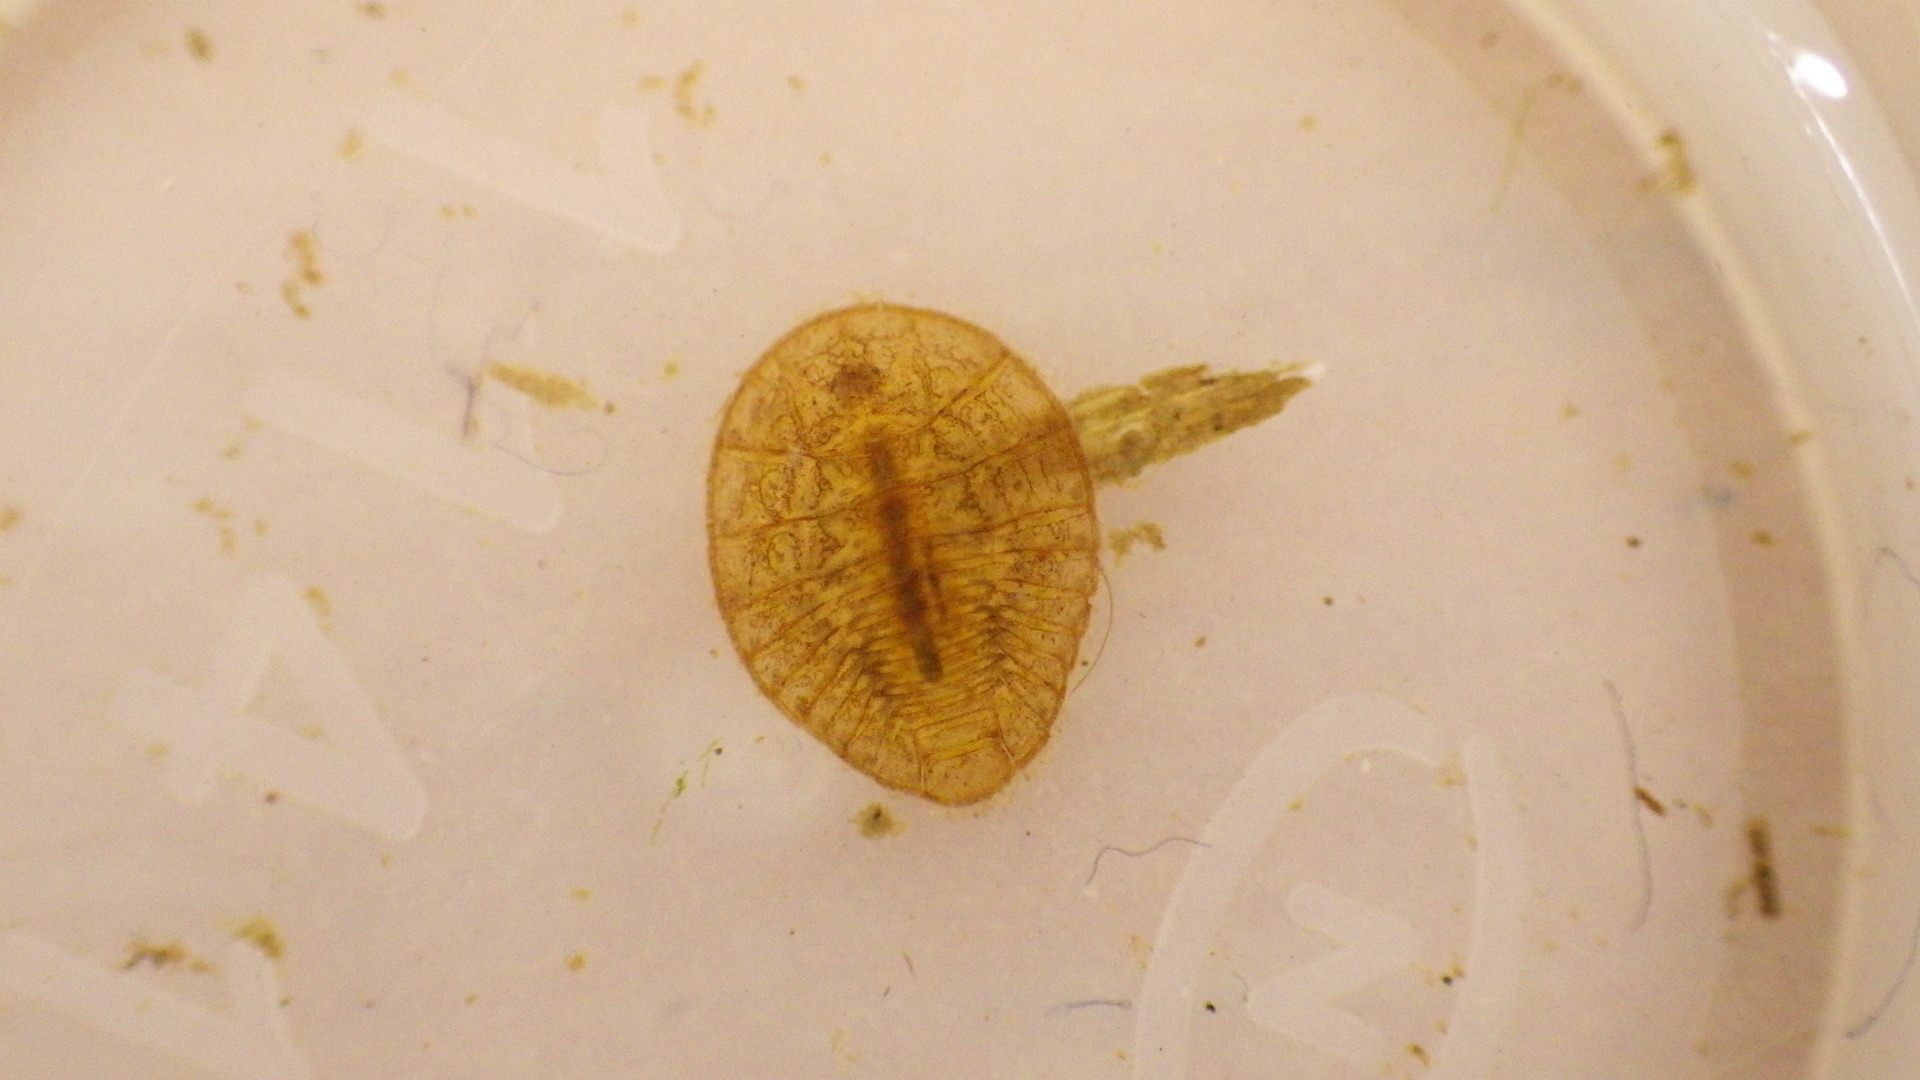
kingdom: Animalia
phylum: Arthropoda
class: Insecta
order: Coleoptera
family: Psephenidae
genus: Psephenus
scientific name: Psephenus herricki
